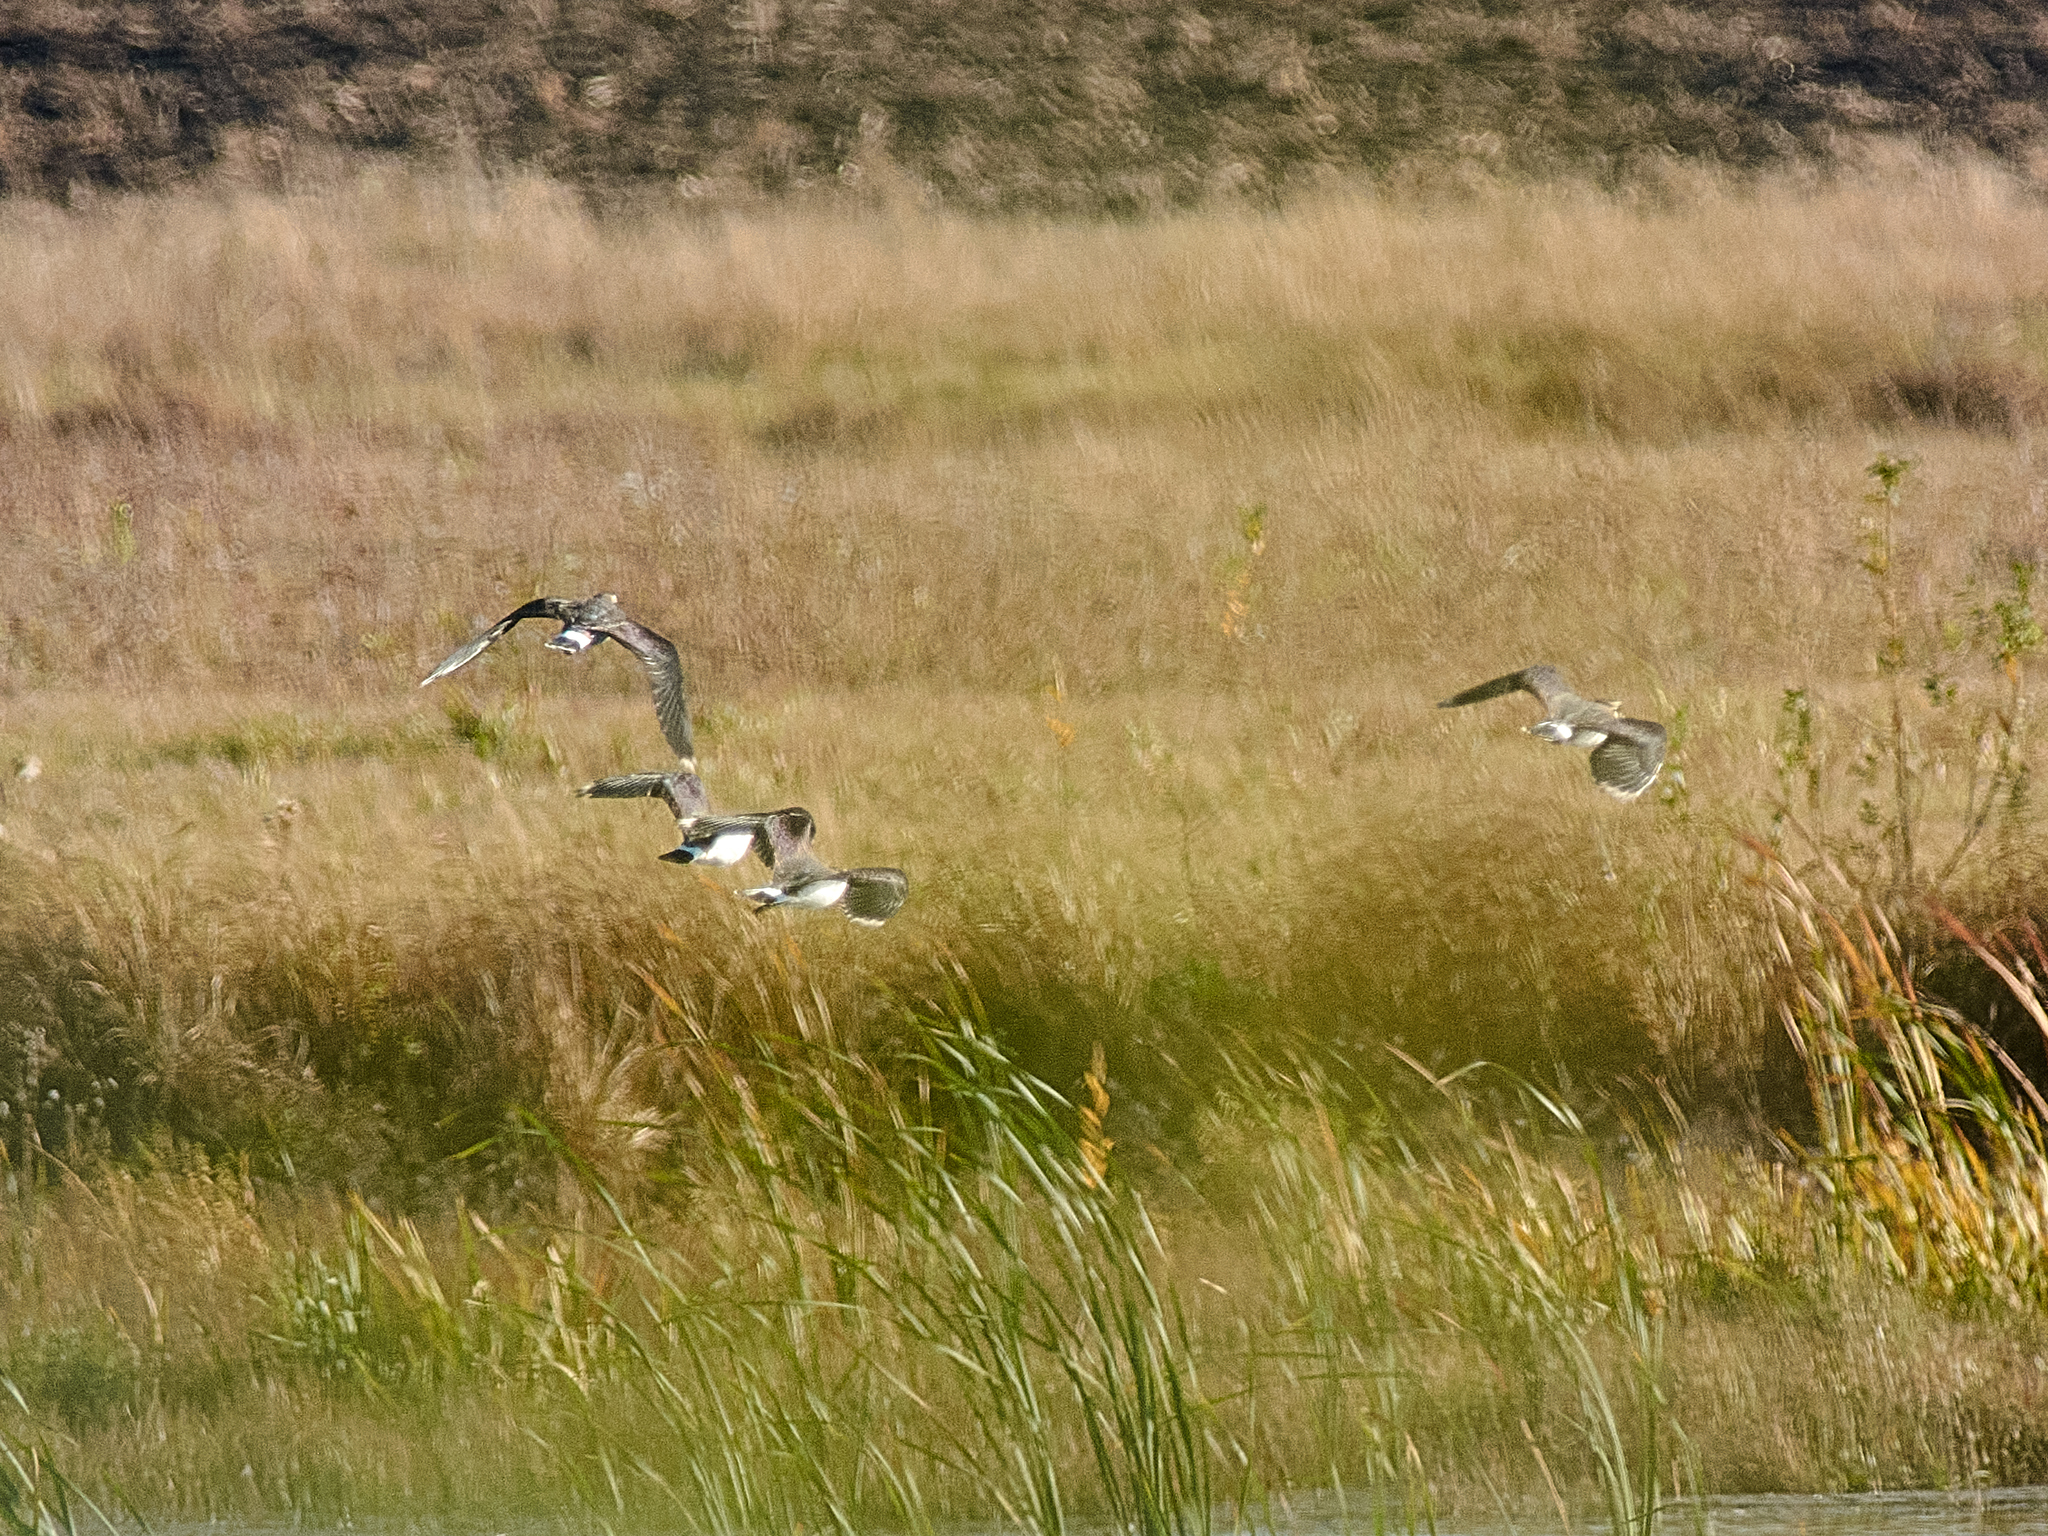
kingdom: Animalia
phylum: Chordata
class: Aves
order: Charadriiformes
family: Charadriidae
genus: Vanellus
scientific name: Vanellus vanellus
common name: Northern lapwing
